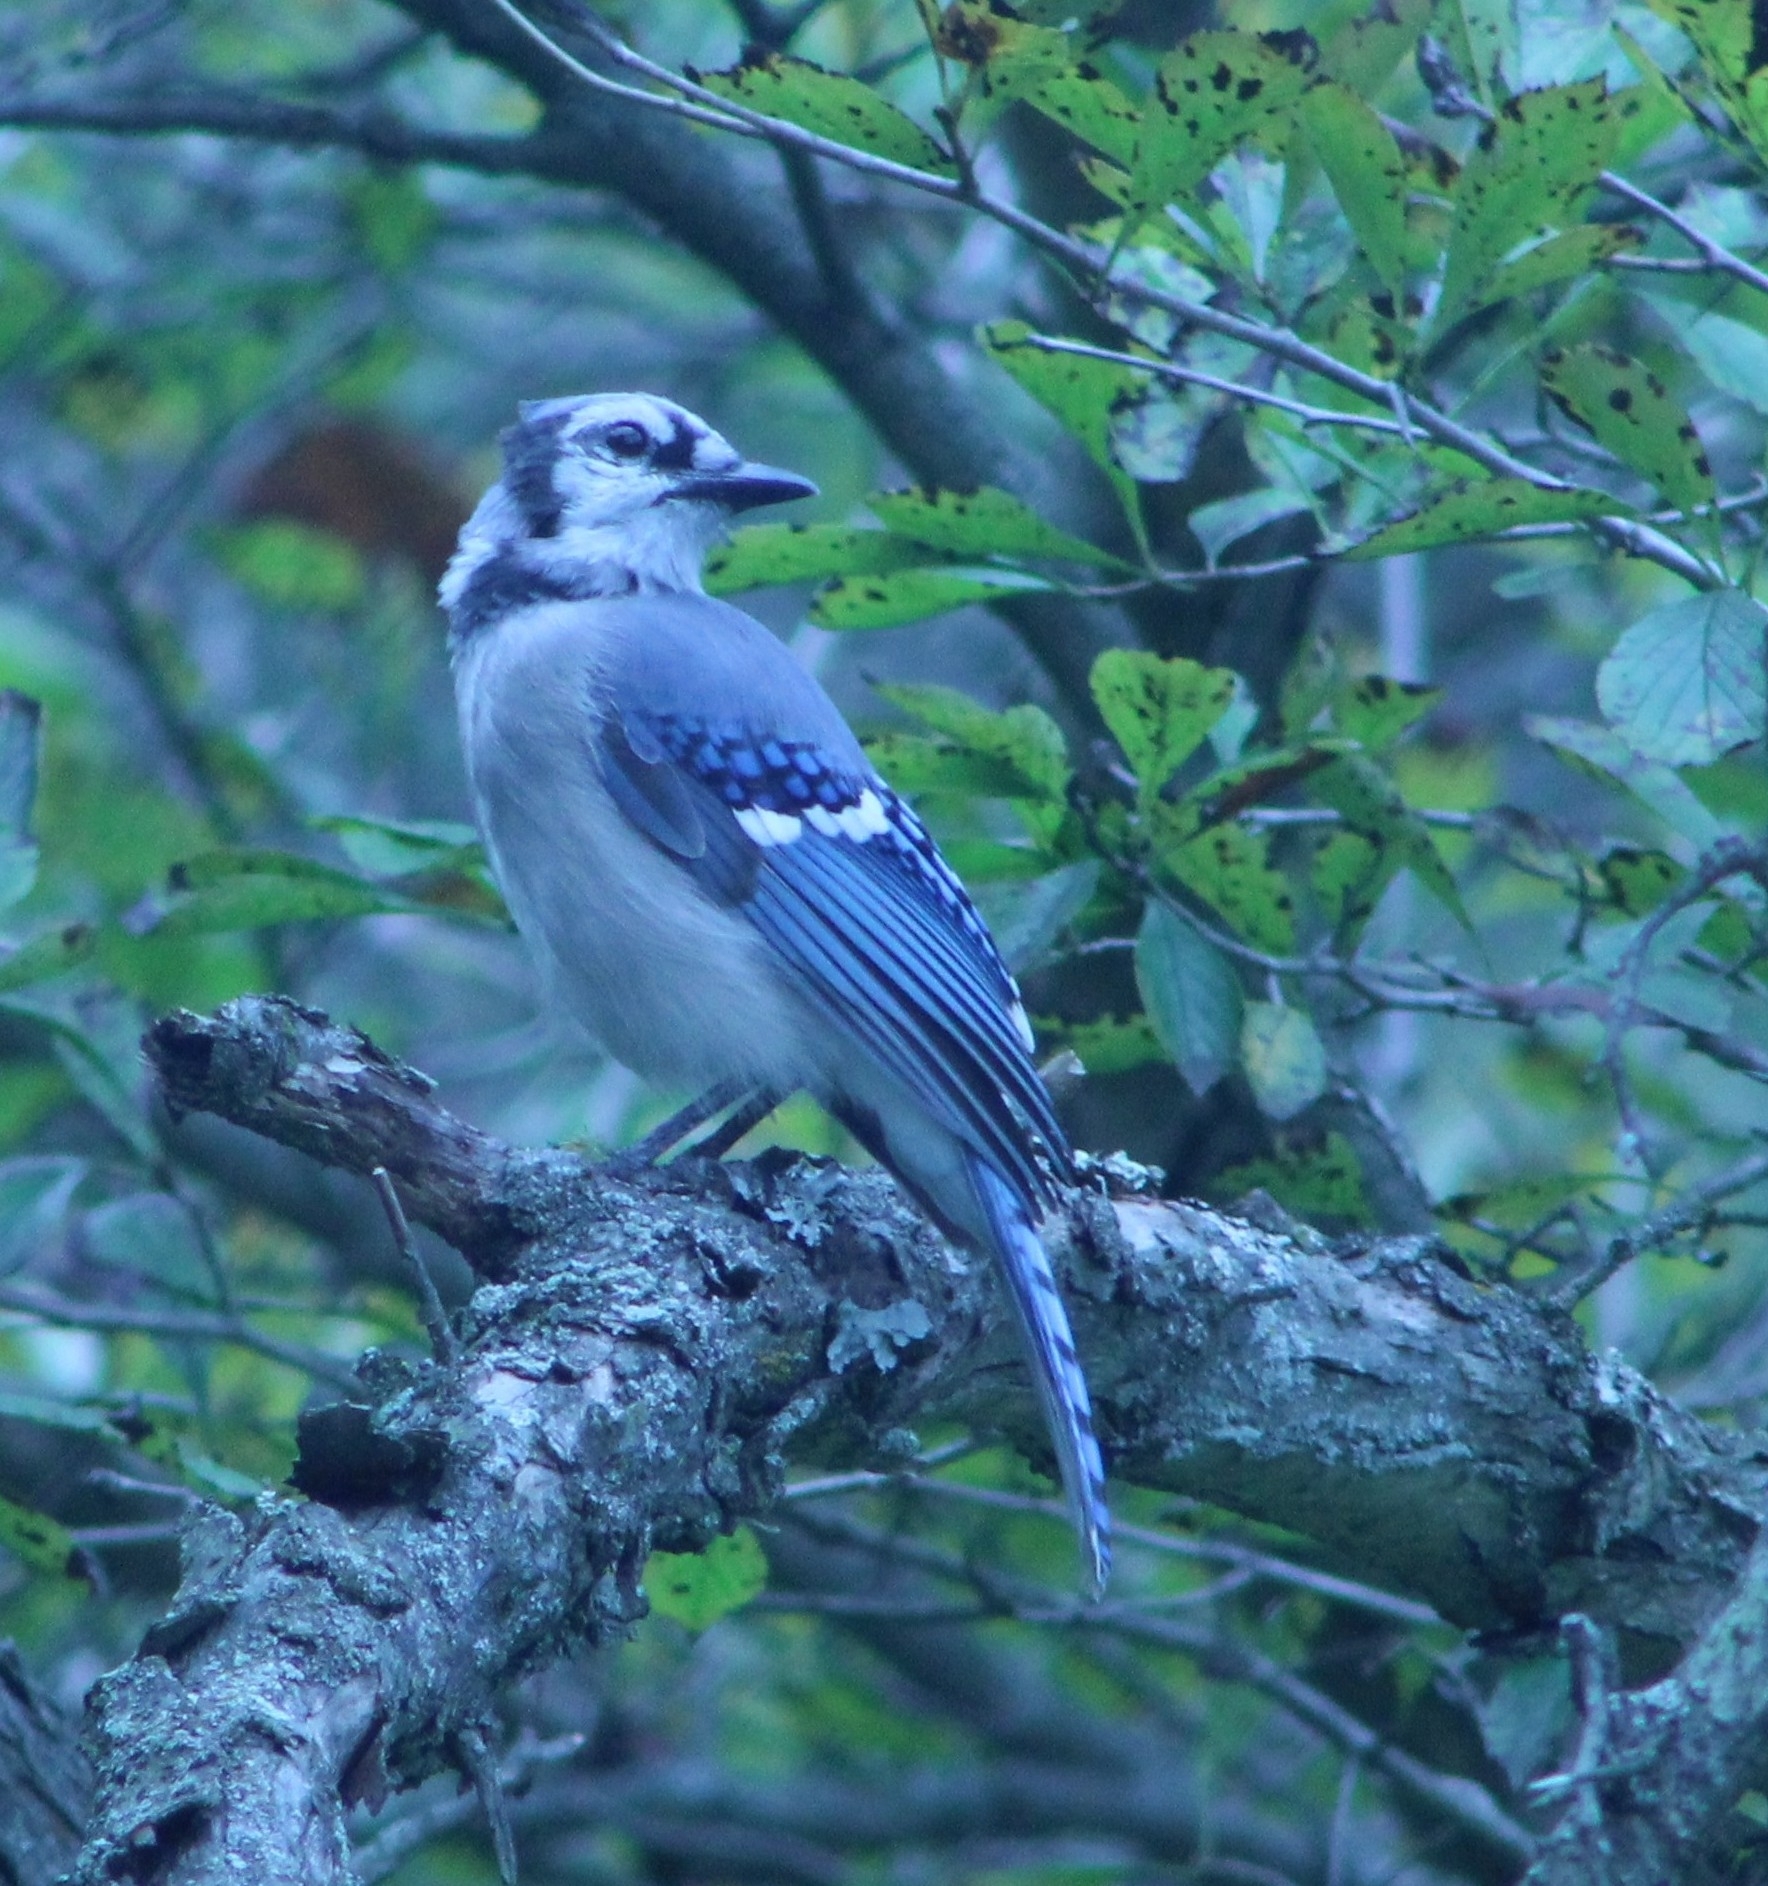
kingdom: Animalia
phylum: Chordata
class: Aves
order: Passeriformes
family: Corvidae
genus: Cyanocitta
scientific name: Cyanocitta cristata
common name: Blue jay
